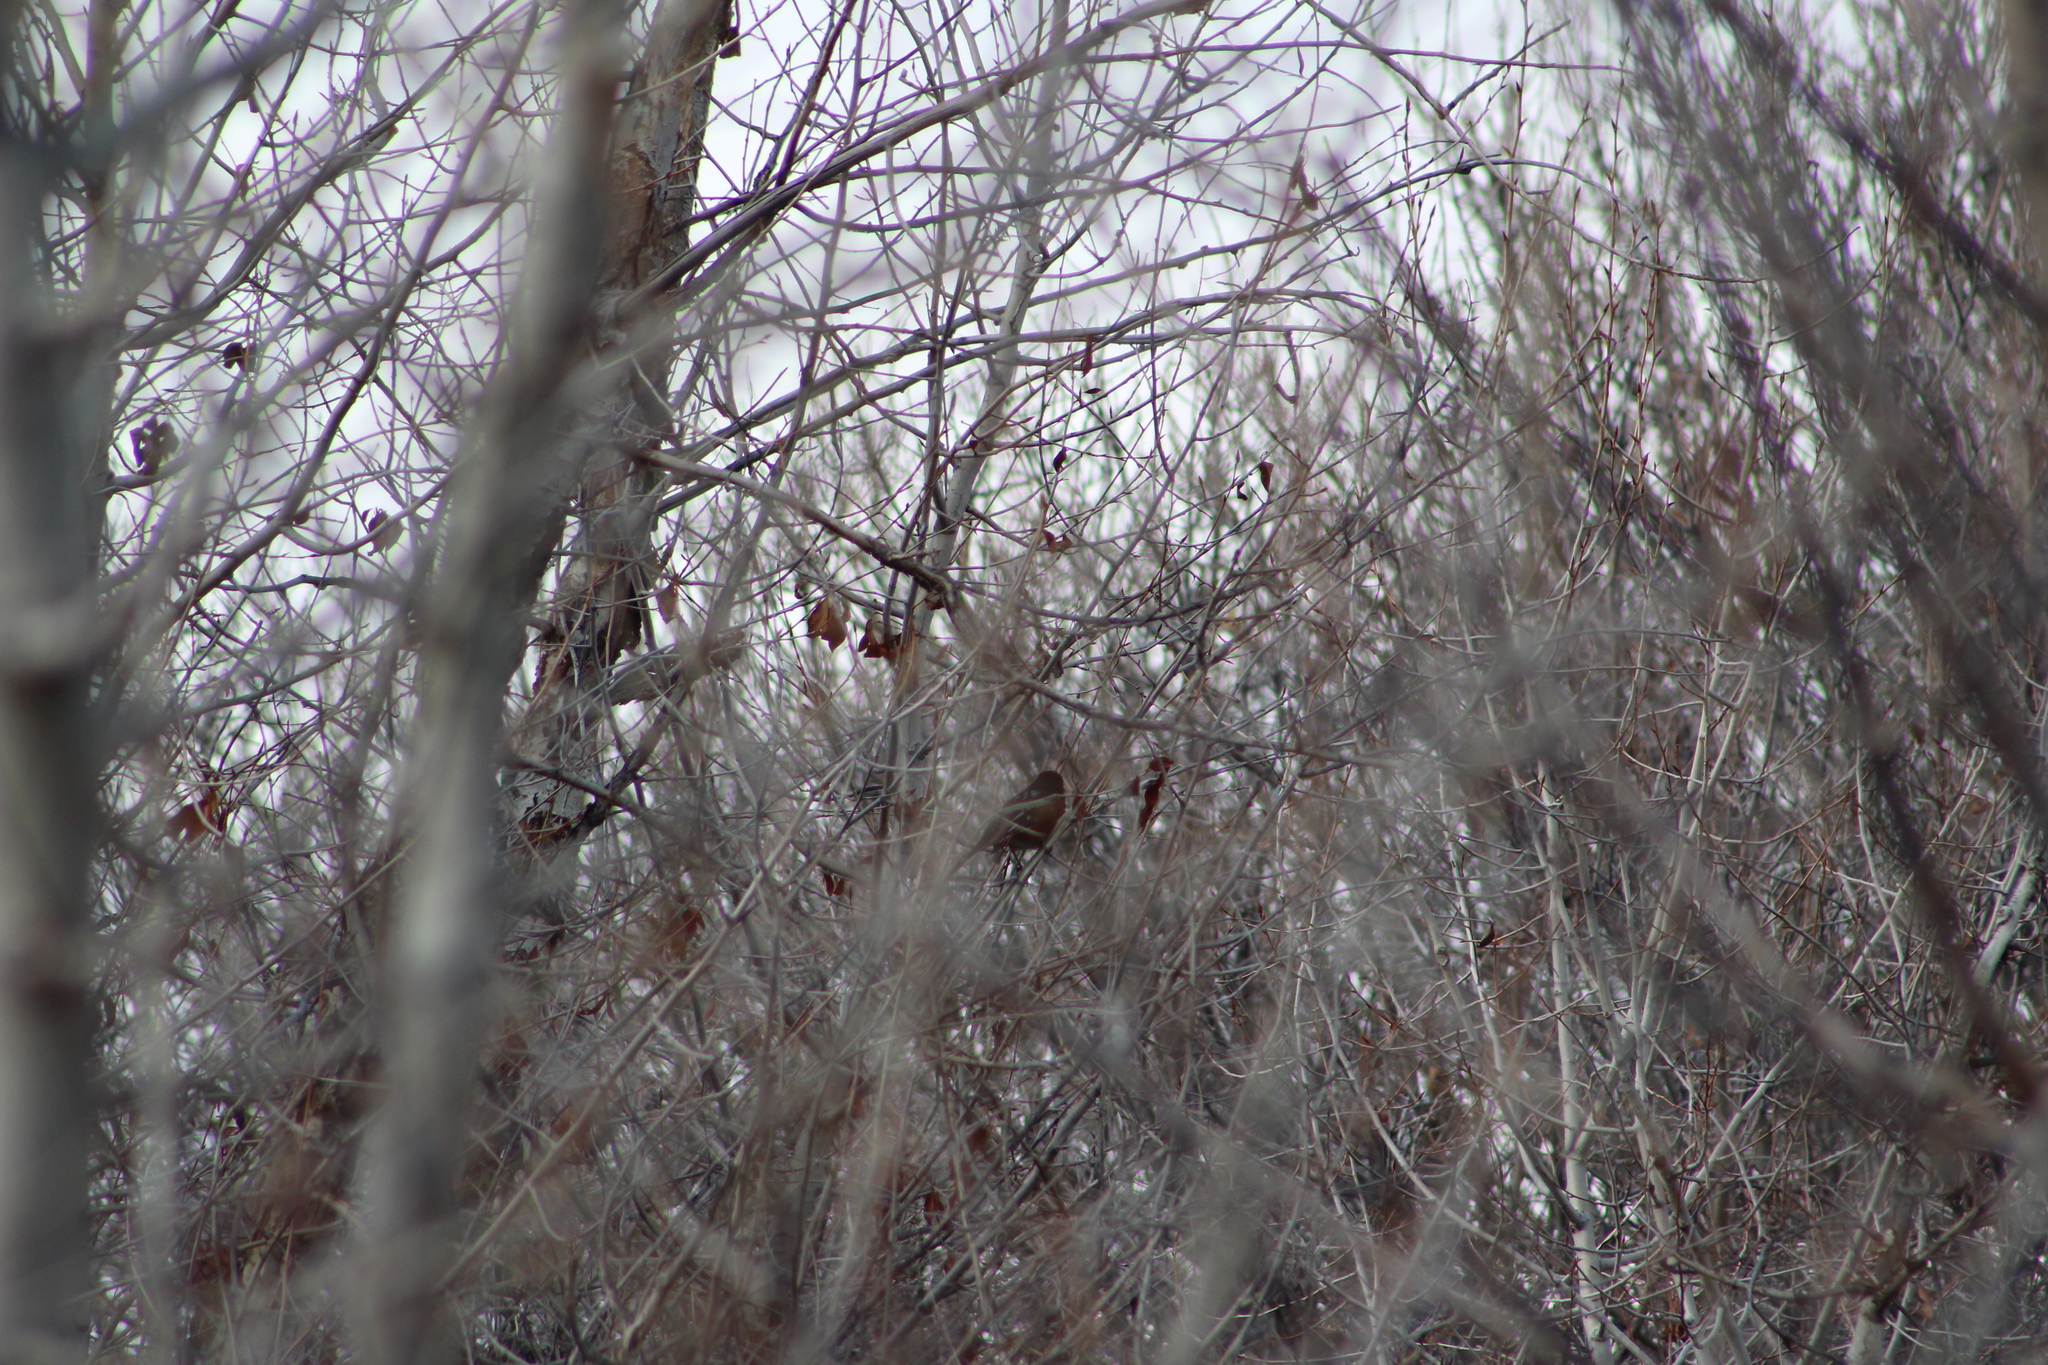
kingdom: Animalia
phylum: Chordata
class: Aves
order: Passeriformes
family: Passerellidae
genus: Pipilo
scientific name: Pipilo maculatus
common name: Spotted towhee
